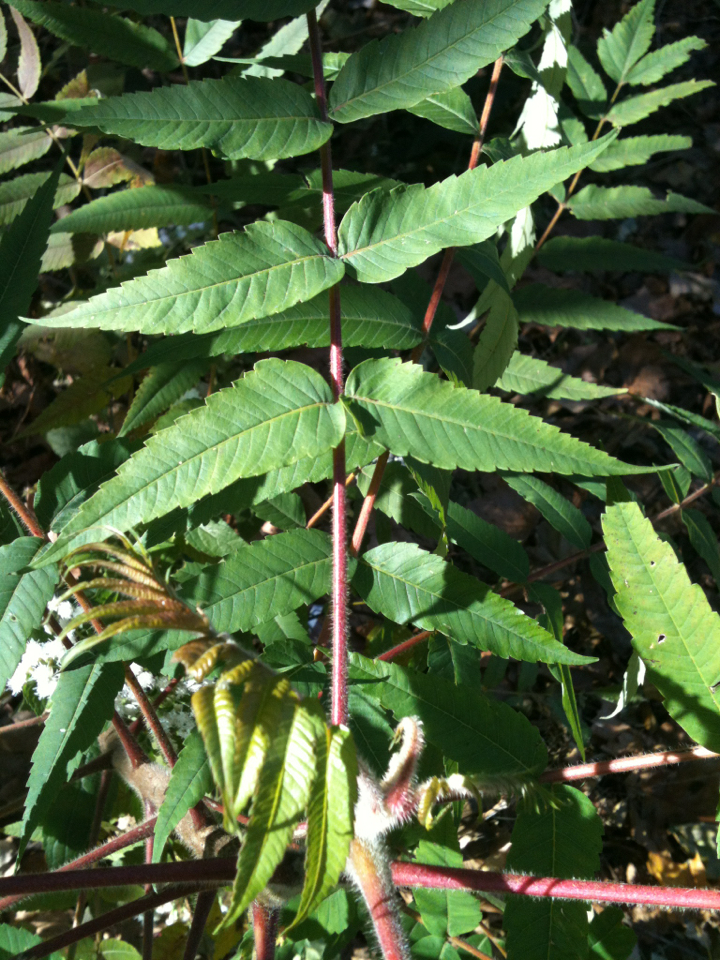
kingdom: Plantae
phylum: Tracheophyta
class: Magnoliopsida
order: Sapindales
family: Anacardiaceae
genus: Rhus
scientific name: Rhus typhina
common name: Staghorn sumac
